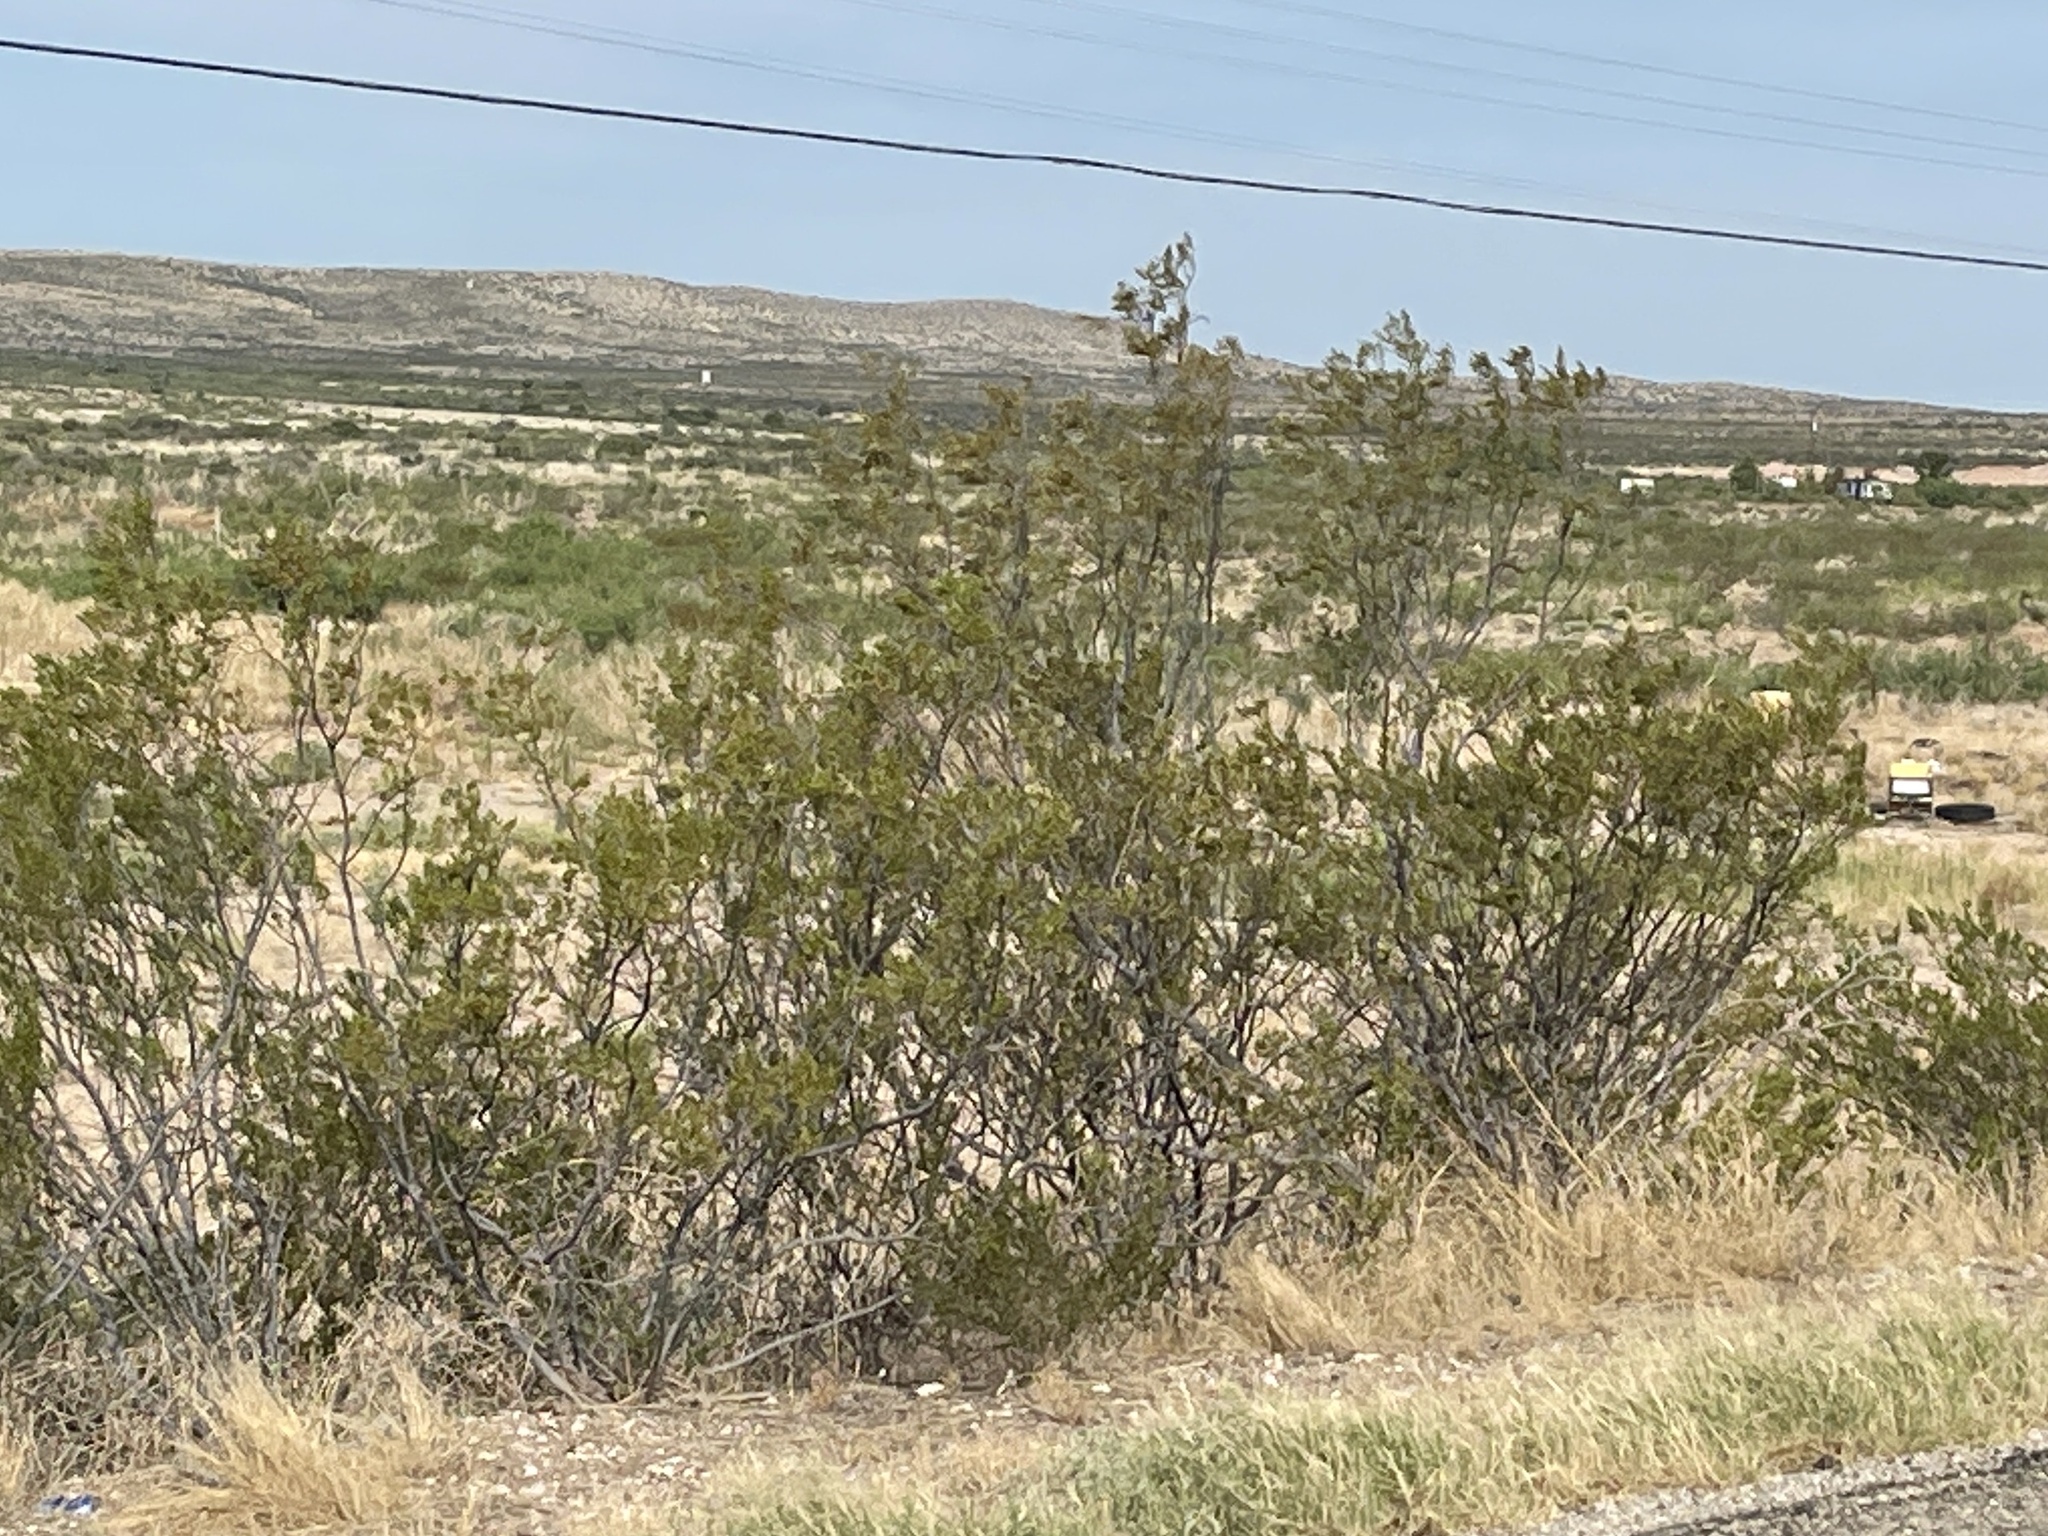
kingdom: Plantae
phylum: Tracheophyta
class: Magnoliopsida
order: Zygophyllales
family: Zygophyllaceae
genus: Larrea
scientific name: Larrea tridentata
